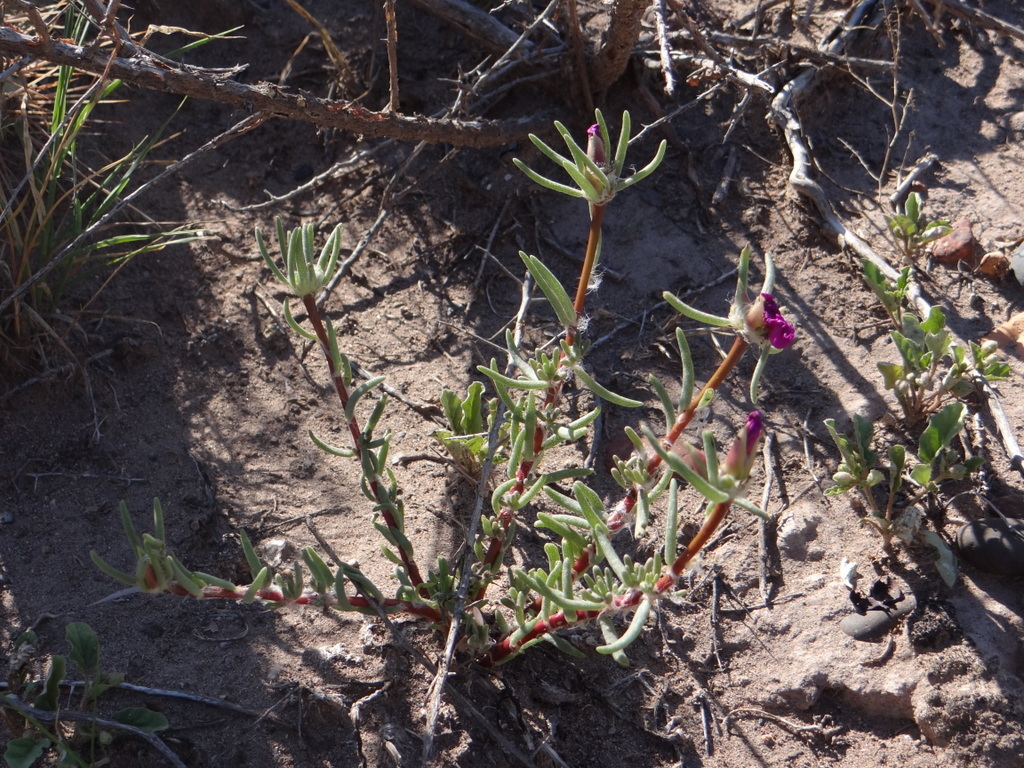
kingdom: Plantae
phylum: Tracheophyta
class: Magnoliopsida
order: Caryophyllales
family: Portulacaceae
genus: Portulaca
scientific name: Portulaca grandiflora
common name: Moss-rose
